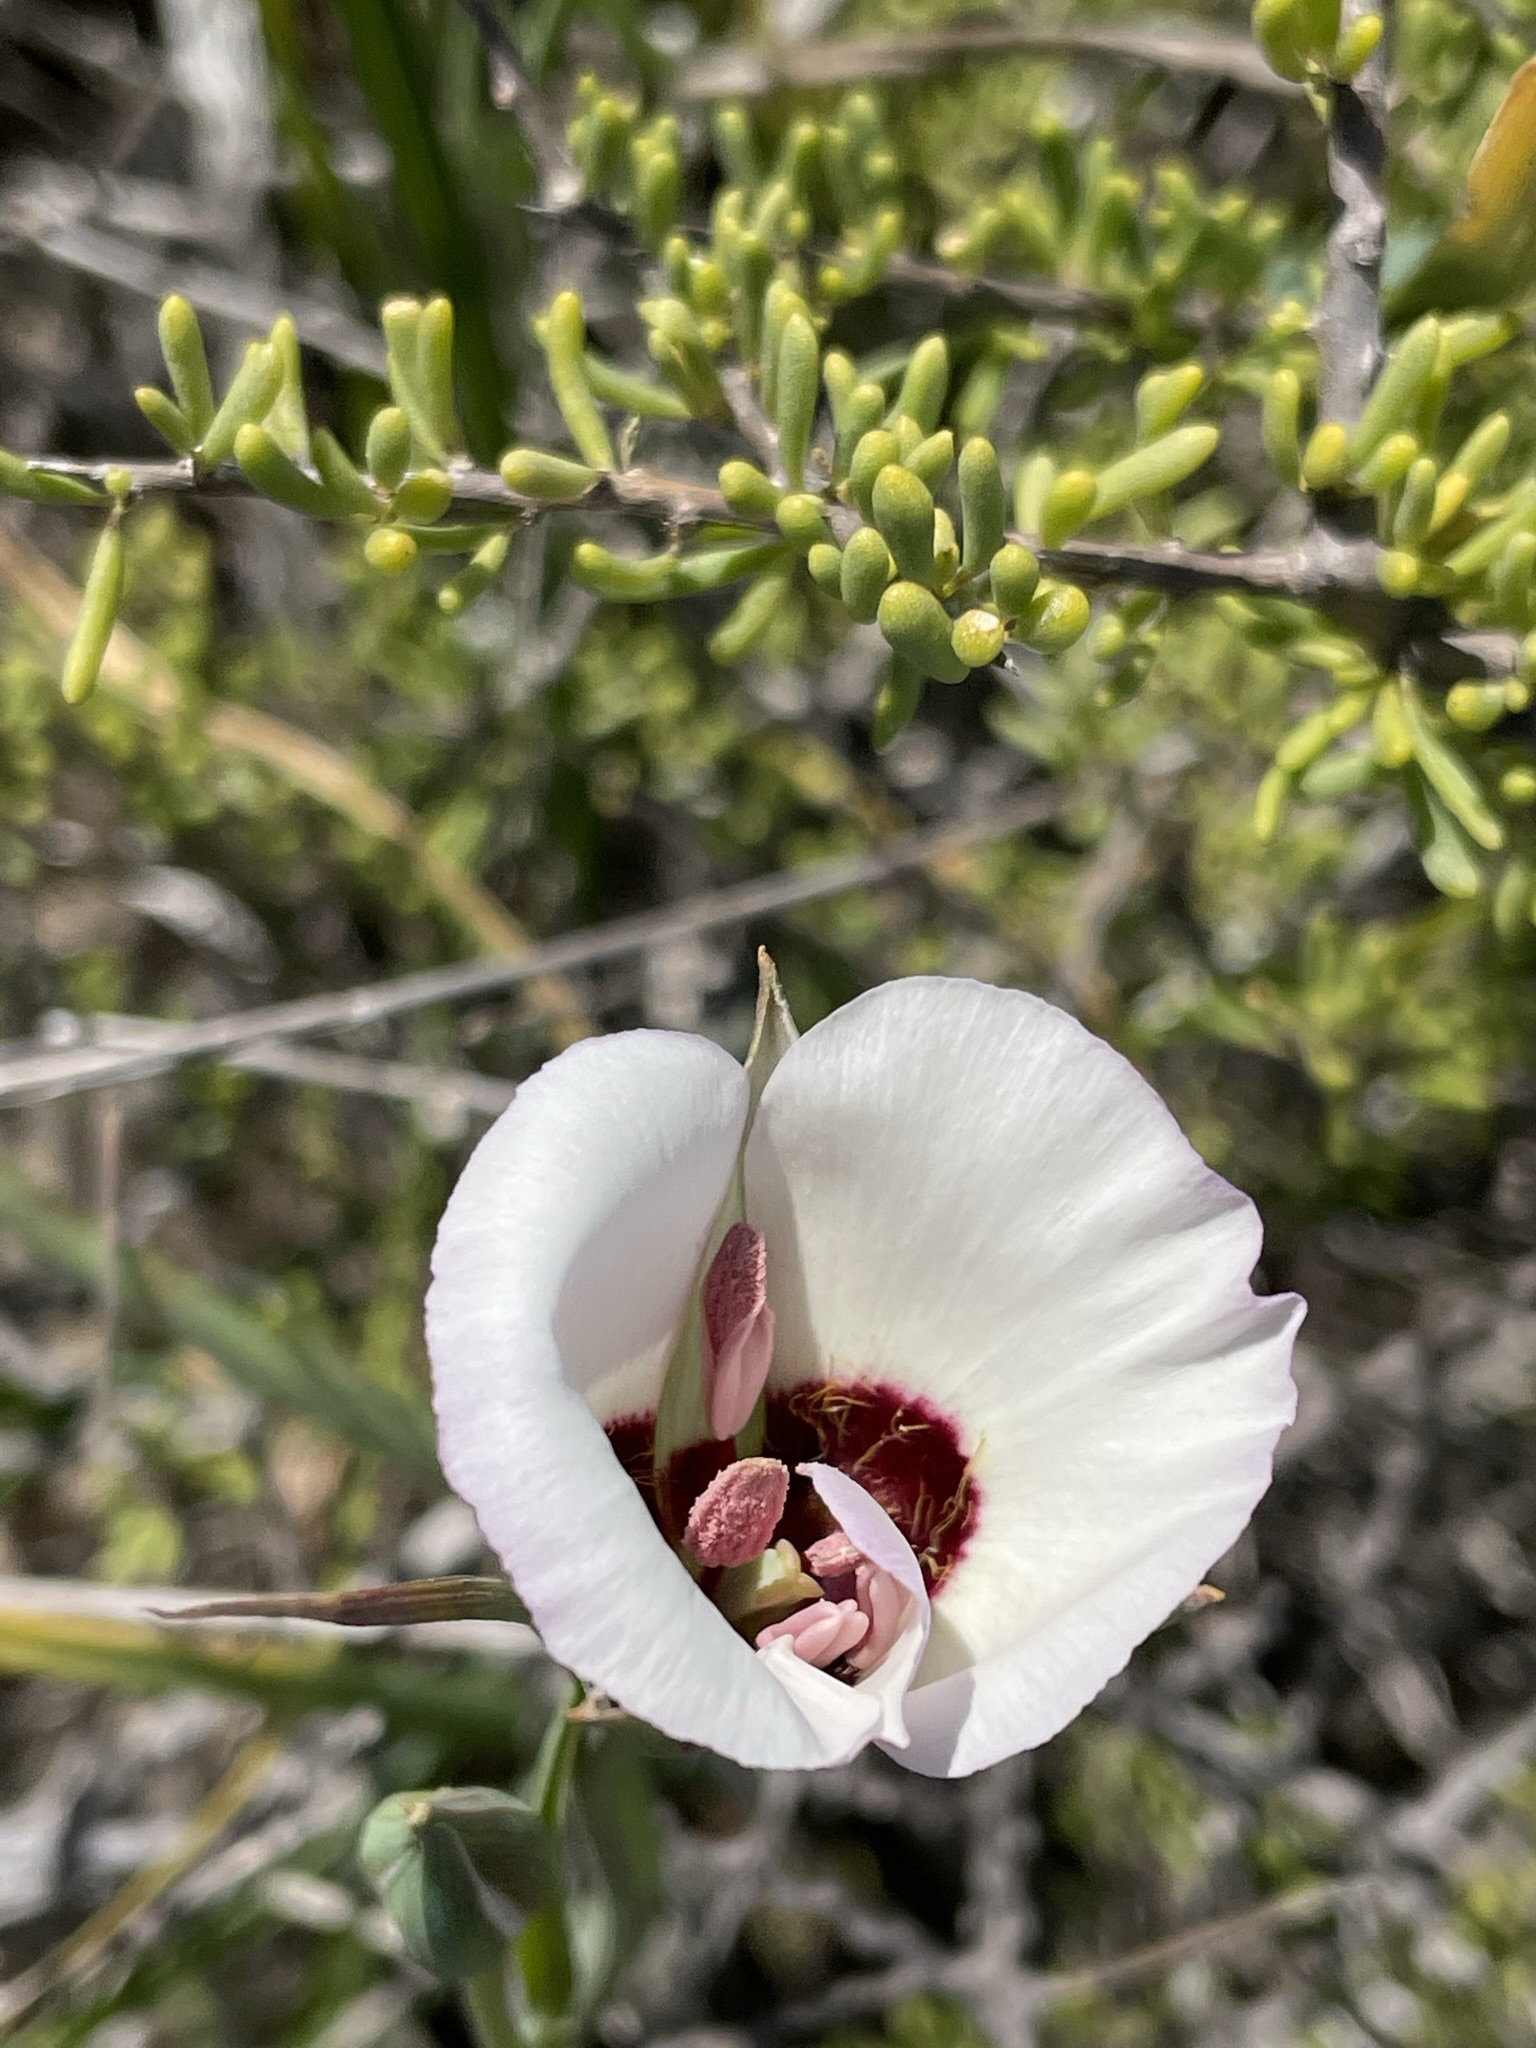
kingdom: Plantae
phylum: Tracheophyta
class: Liliopsida
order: Liliales
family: Liliaceae
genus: Calochortus
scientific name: Calochortus catalinae
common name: Catalina mariposa-lily
